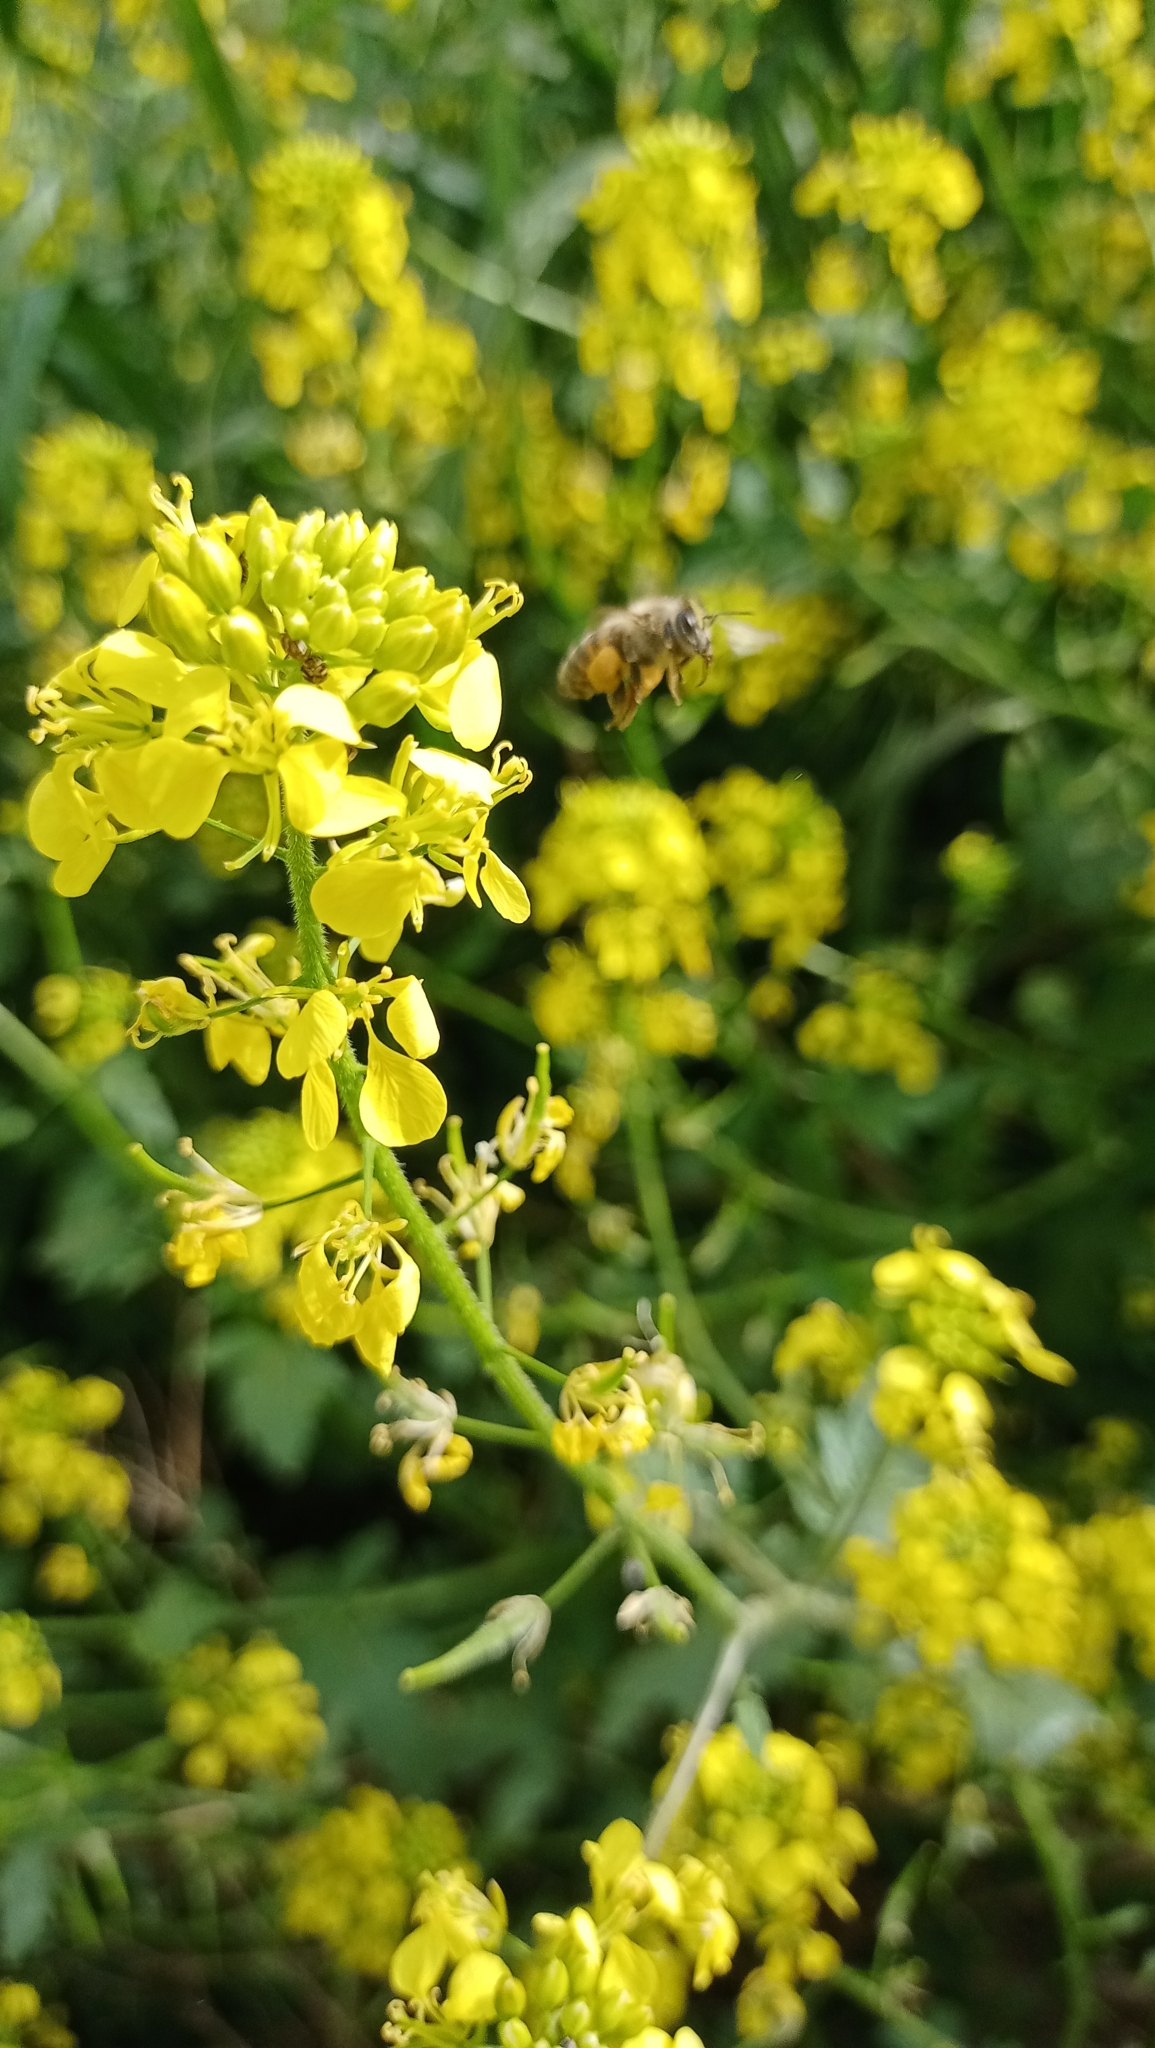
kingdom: Animalia
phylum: Arthropoda
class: Insecta
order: Hymenoptera
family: Apidae
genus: Apis
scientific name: Apis mellifera
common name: Honey bee
